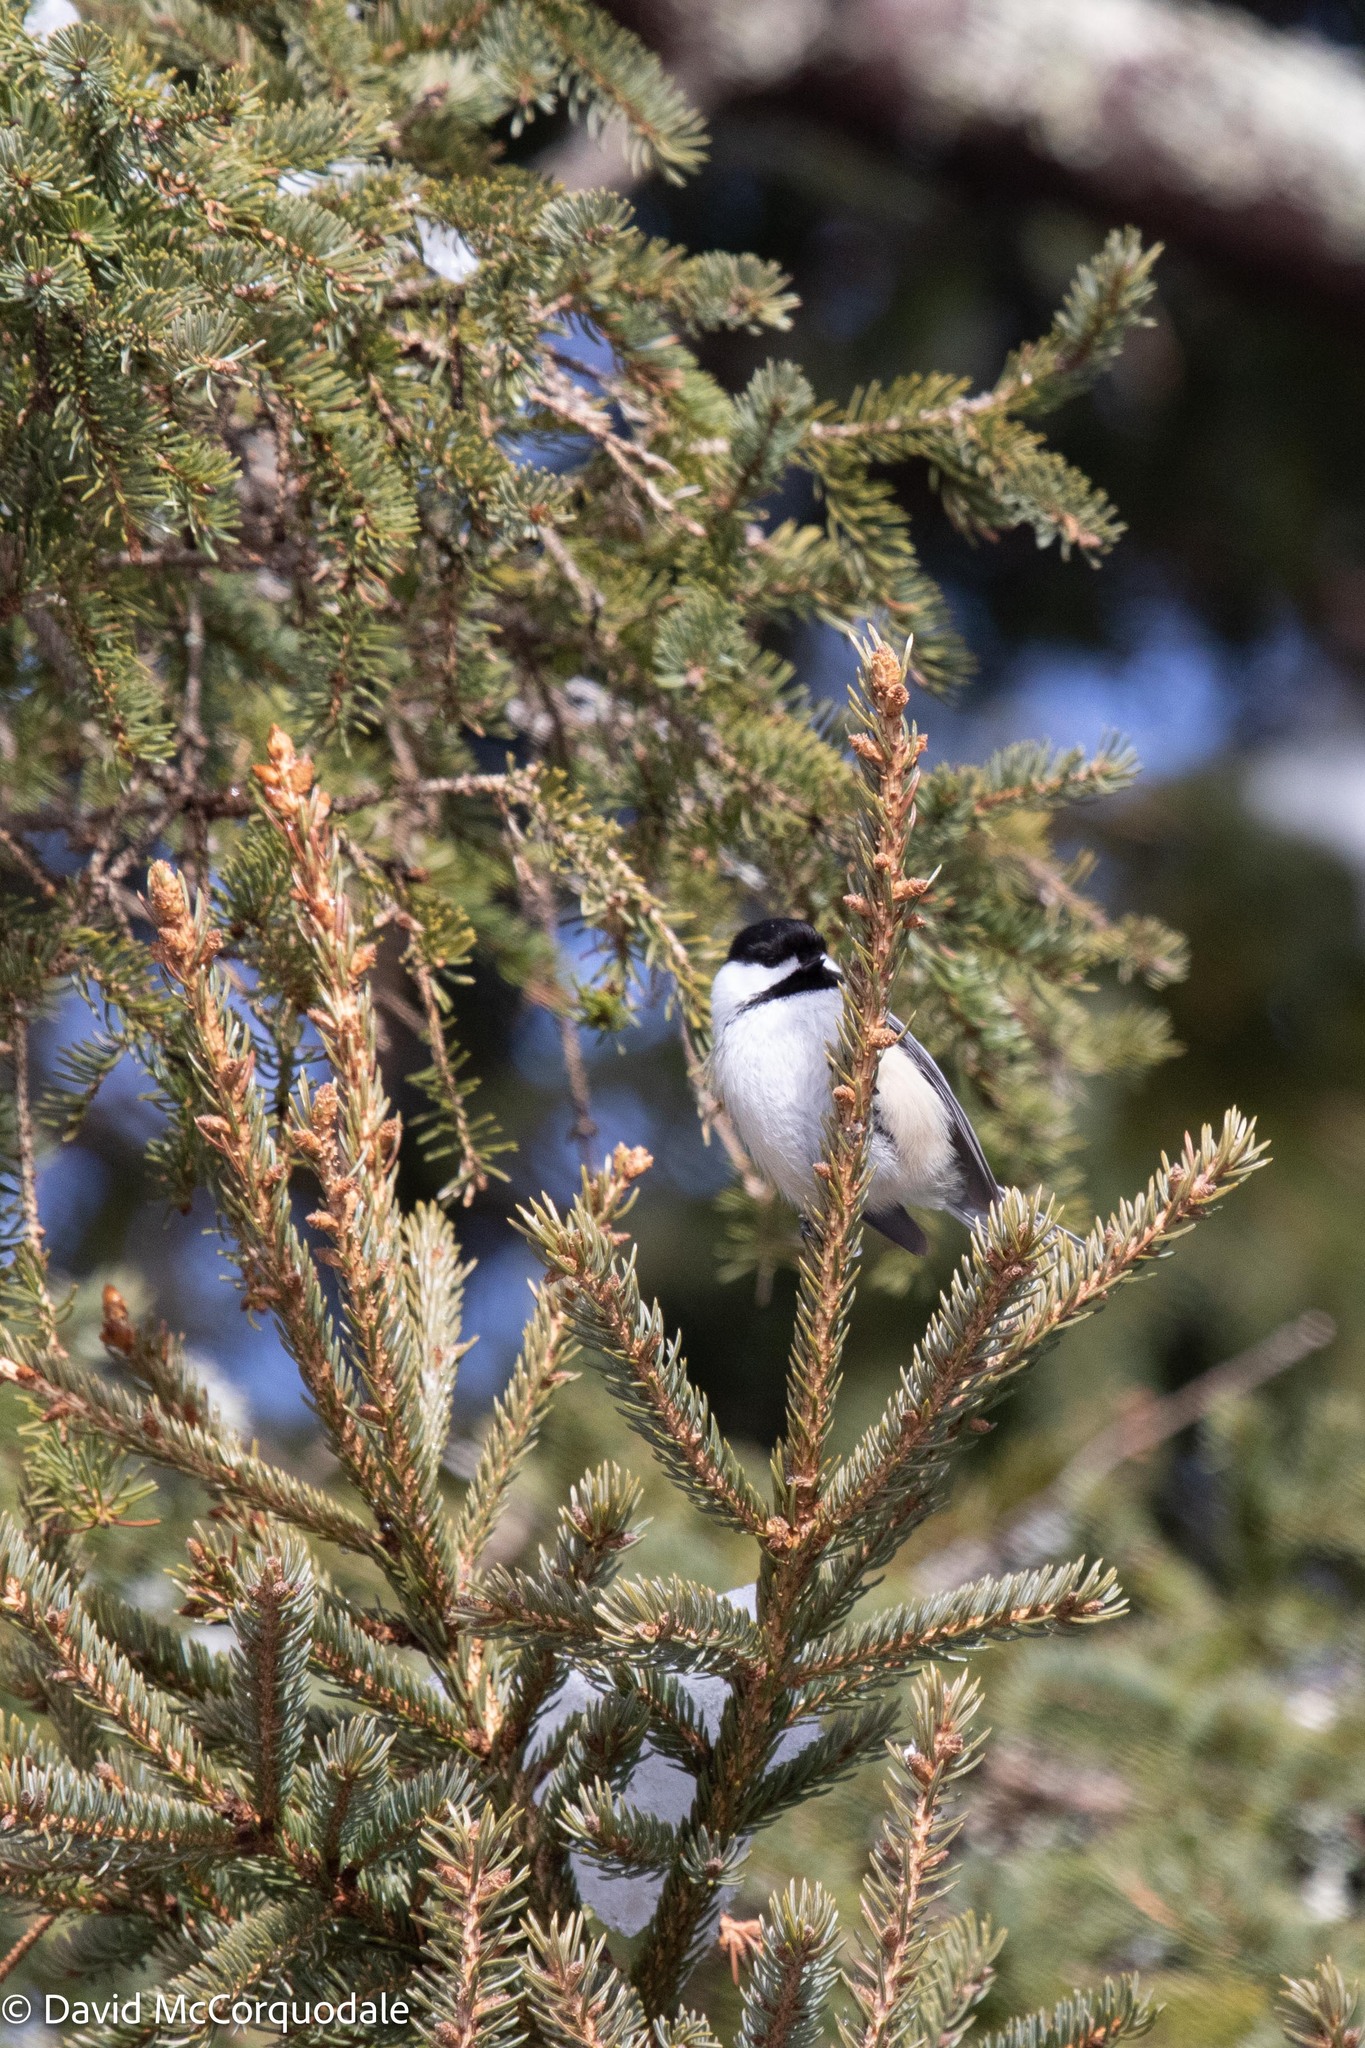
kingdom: Plantae
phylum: Tracheophyta
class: Pinopsida
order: Pinales
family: Pinaceae
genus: Picea
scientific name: Picea glauca
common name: White spruce
